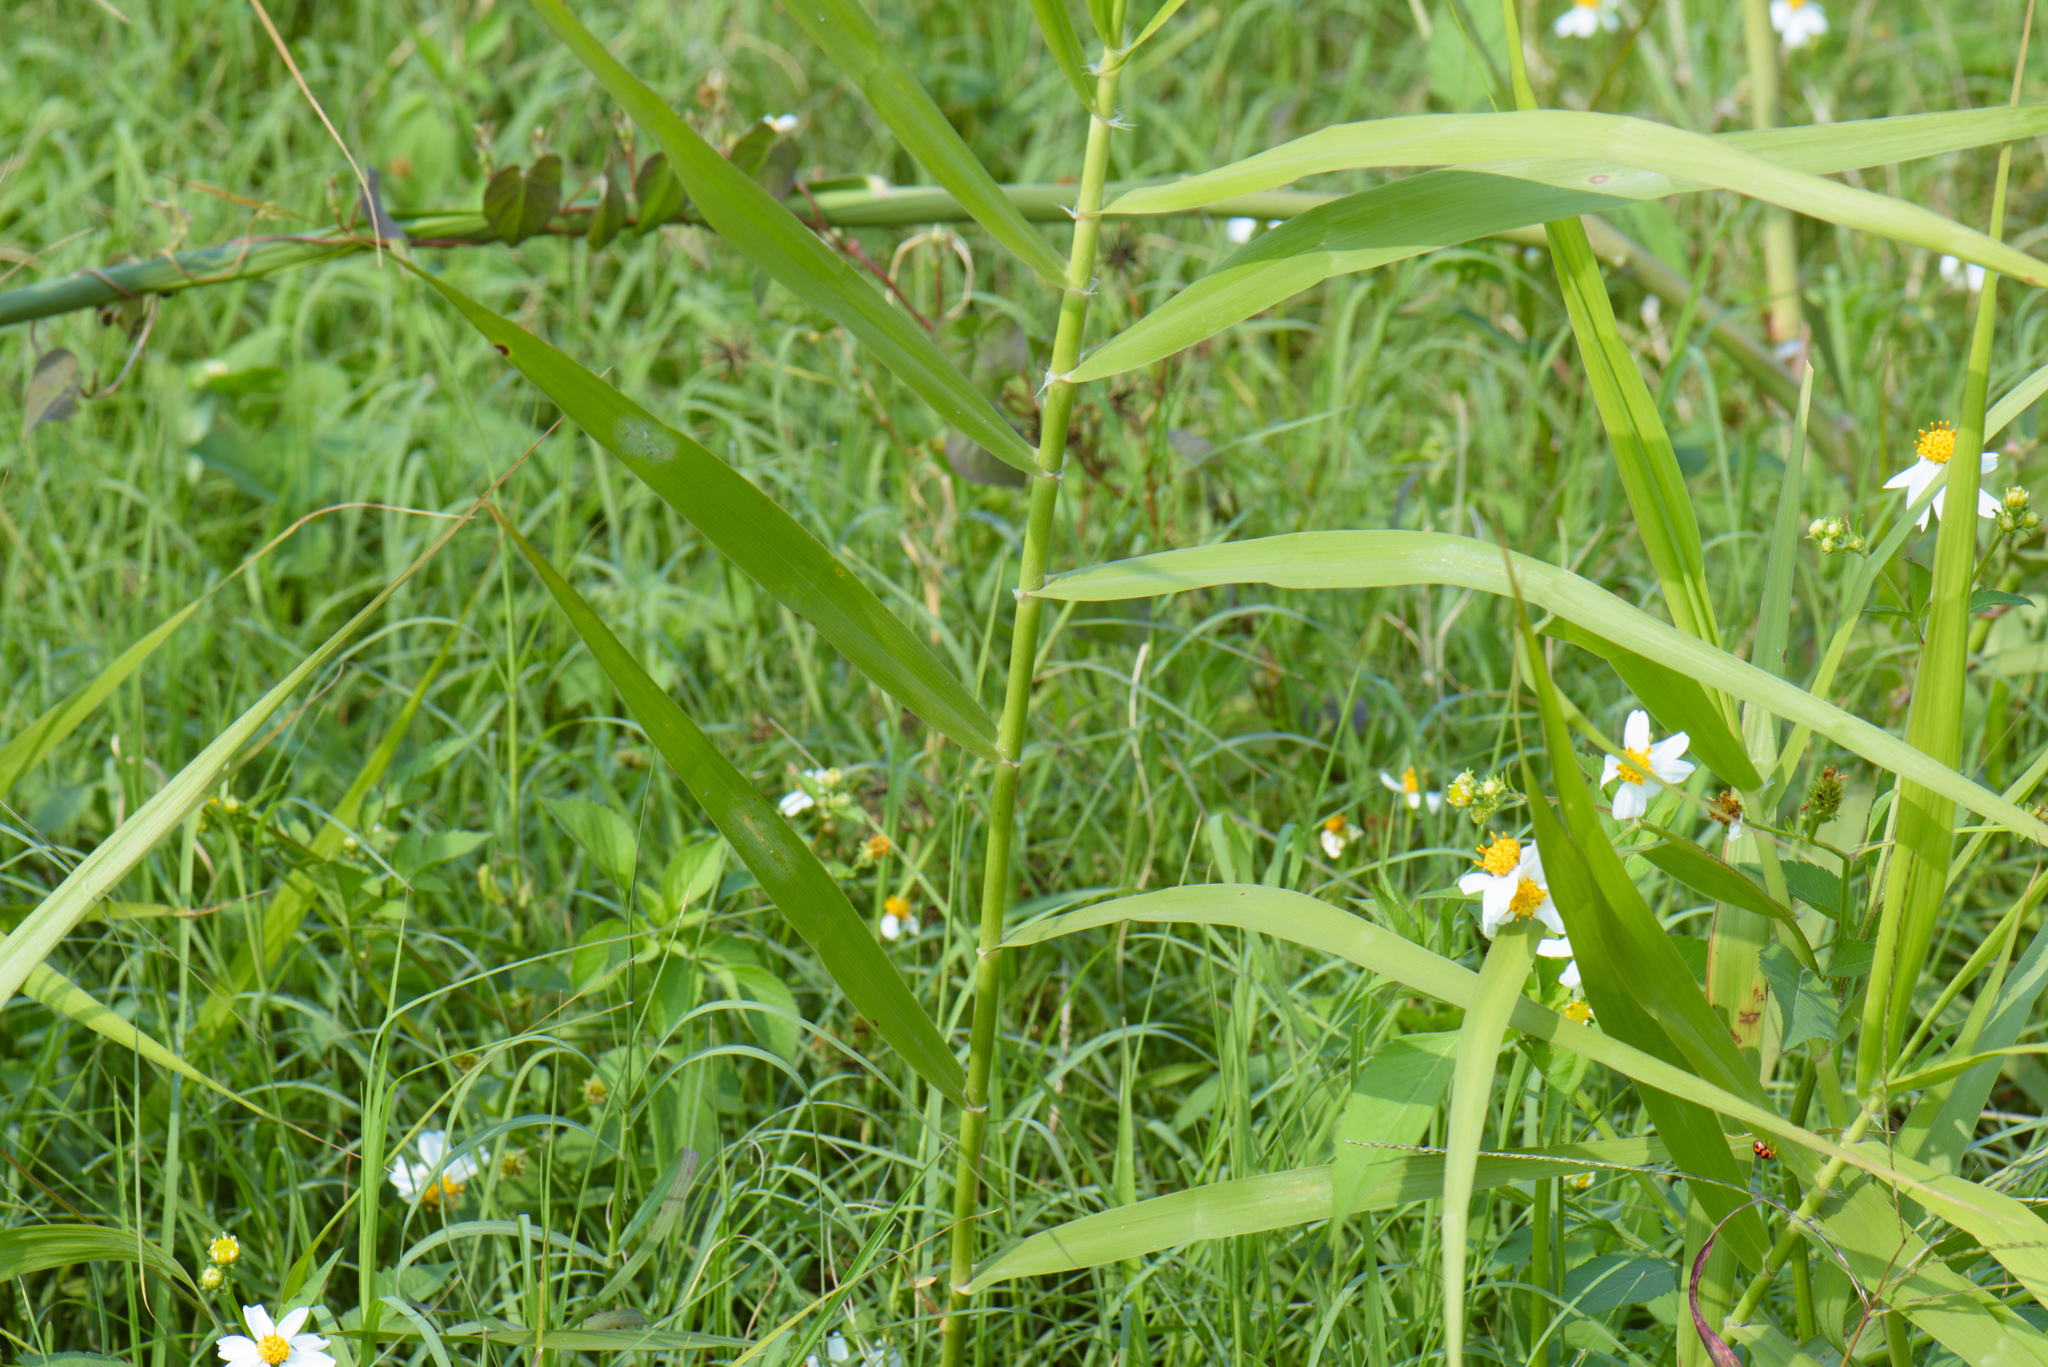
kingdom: Plantae
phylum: Tracheophyta
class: Liliopsida
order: Poales
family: Poaceae
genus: Phragmites
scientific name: Phragmites karka
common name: Tropical reed
